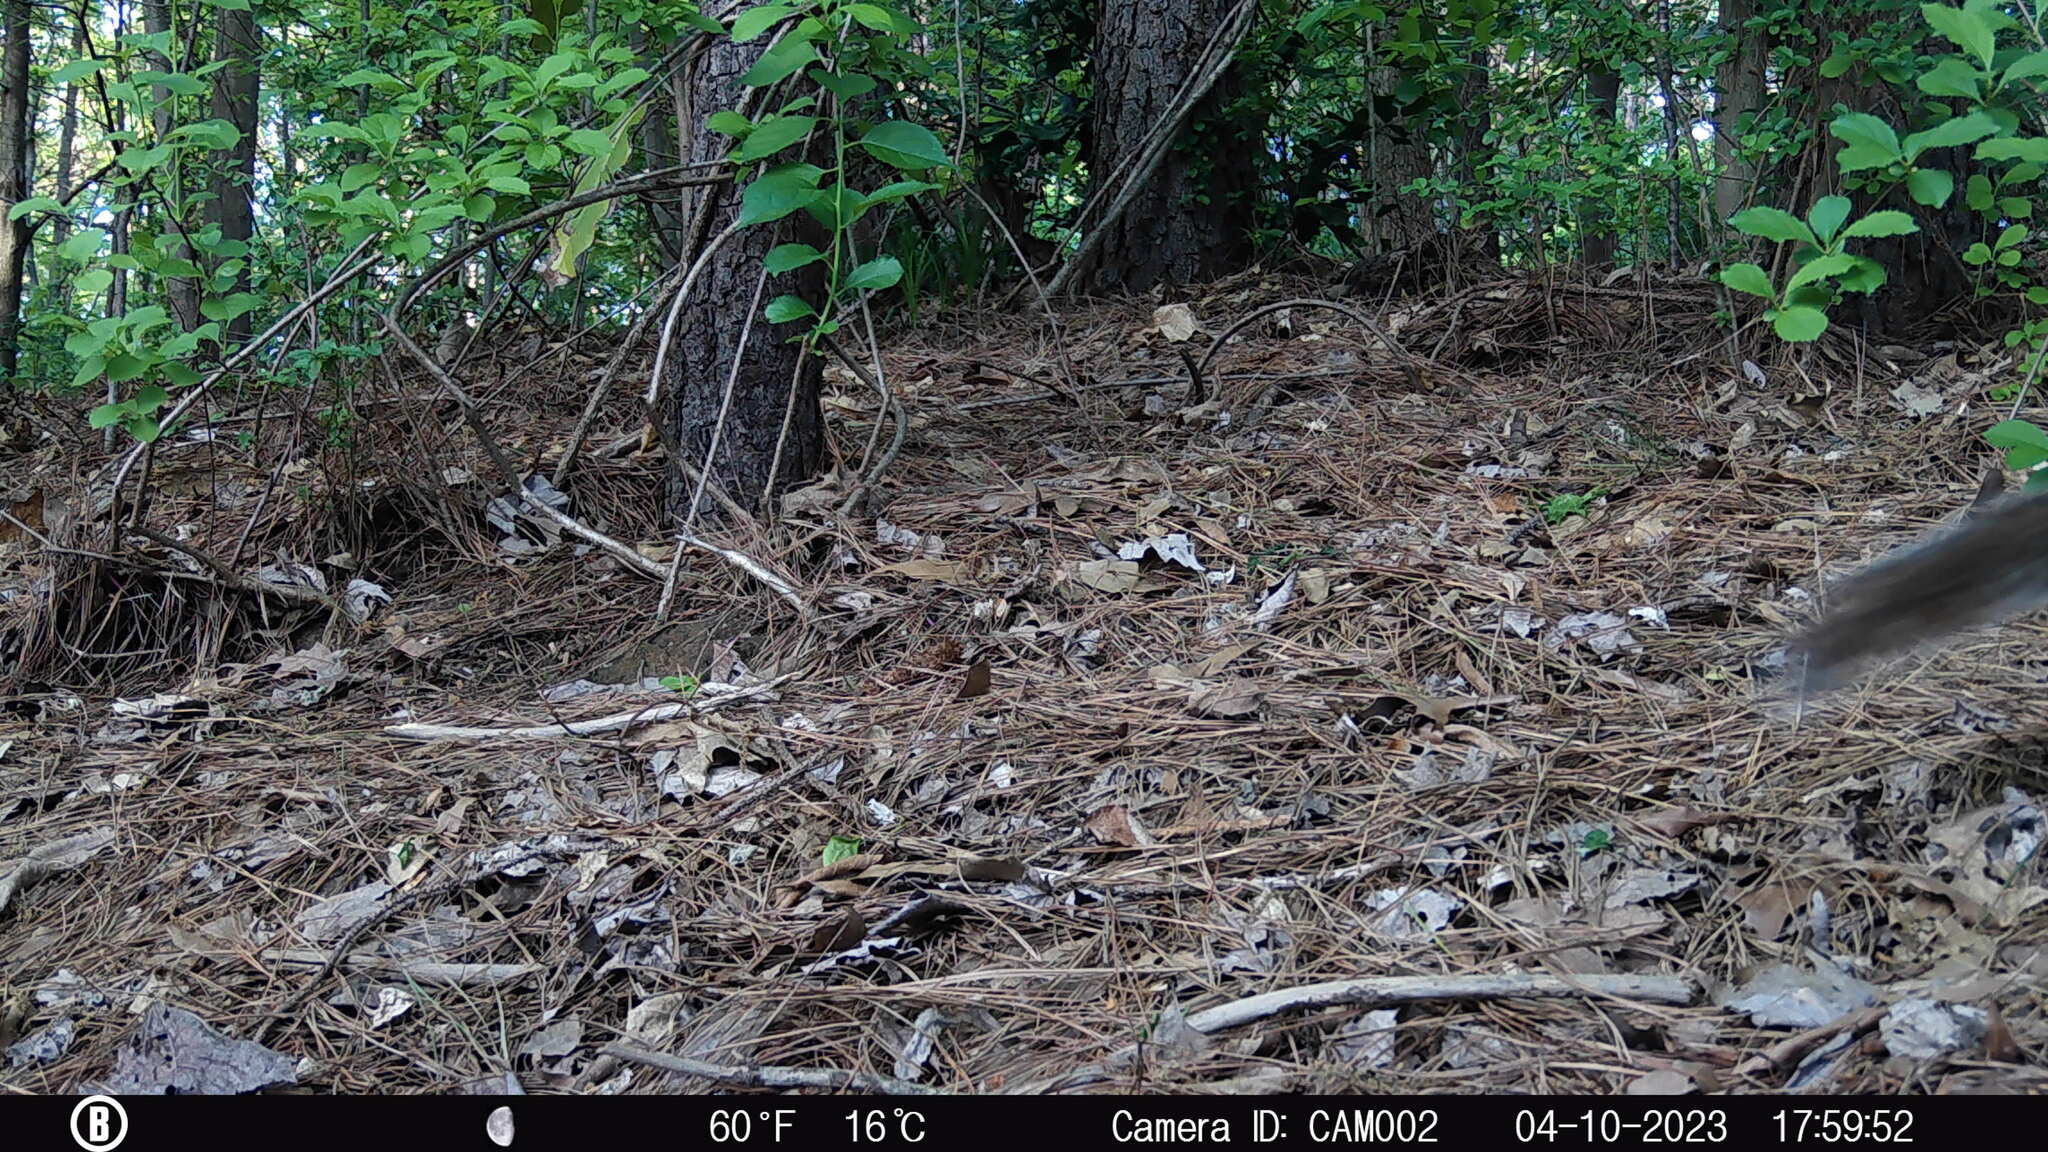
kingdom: Animalia
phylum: Chordata
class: Mammalia
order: Rodentia
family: Sciuridae
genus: Sciurus
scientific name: Sciurus carolinensis
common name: Eastern gray squirrel
